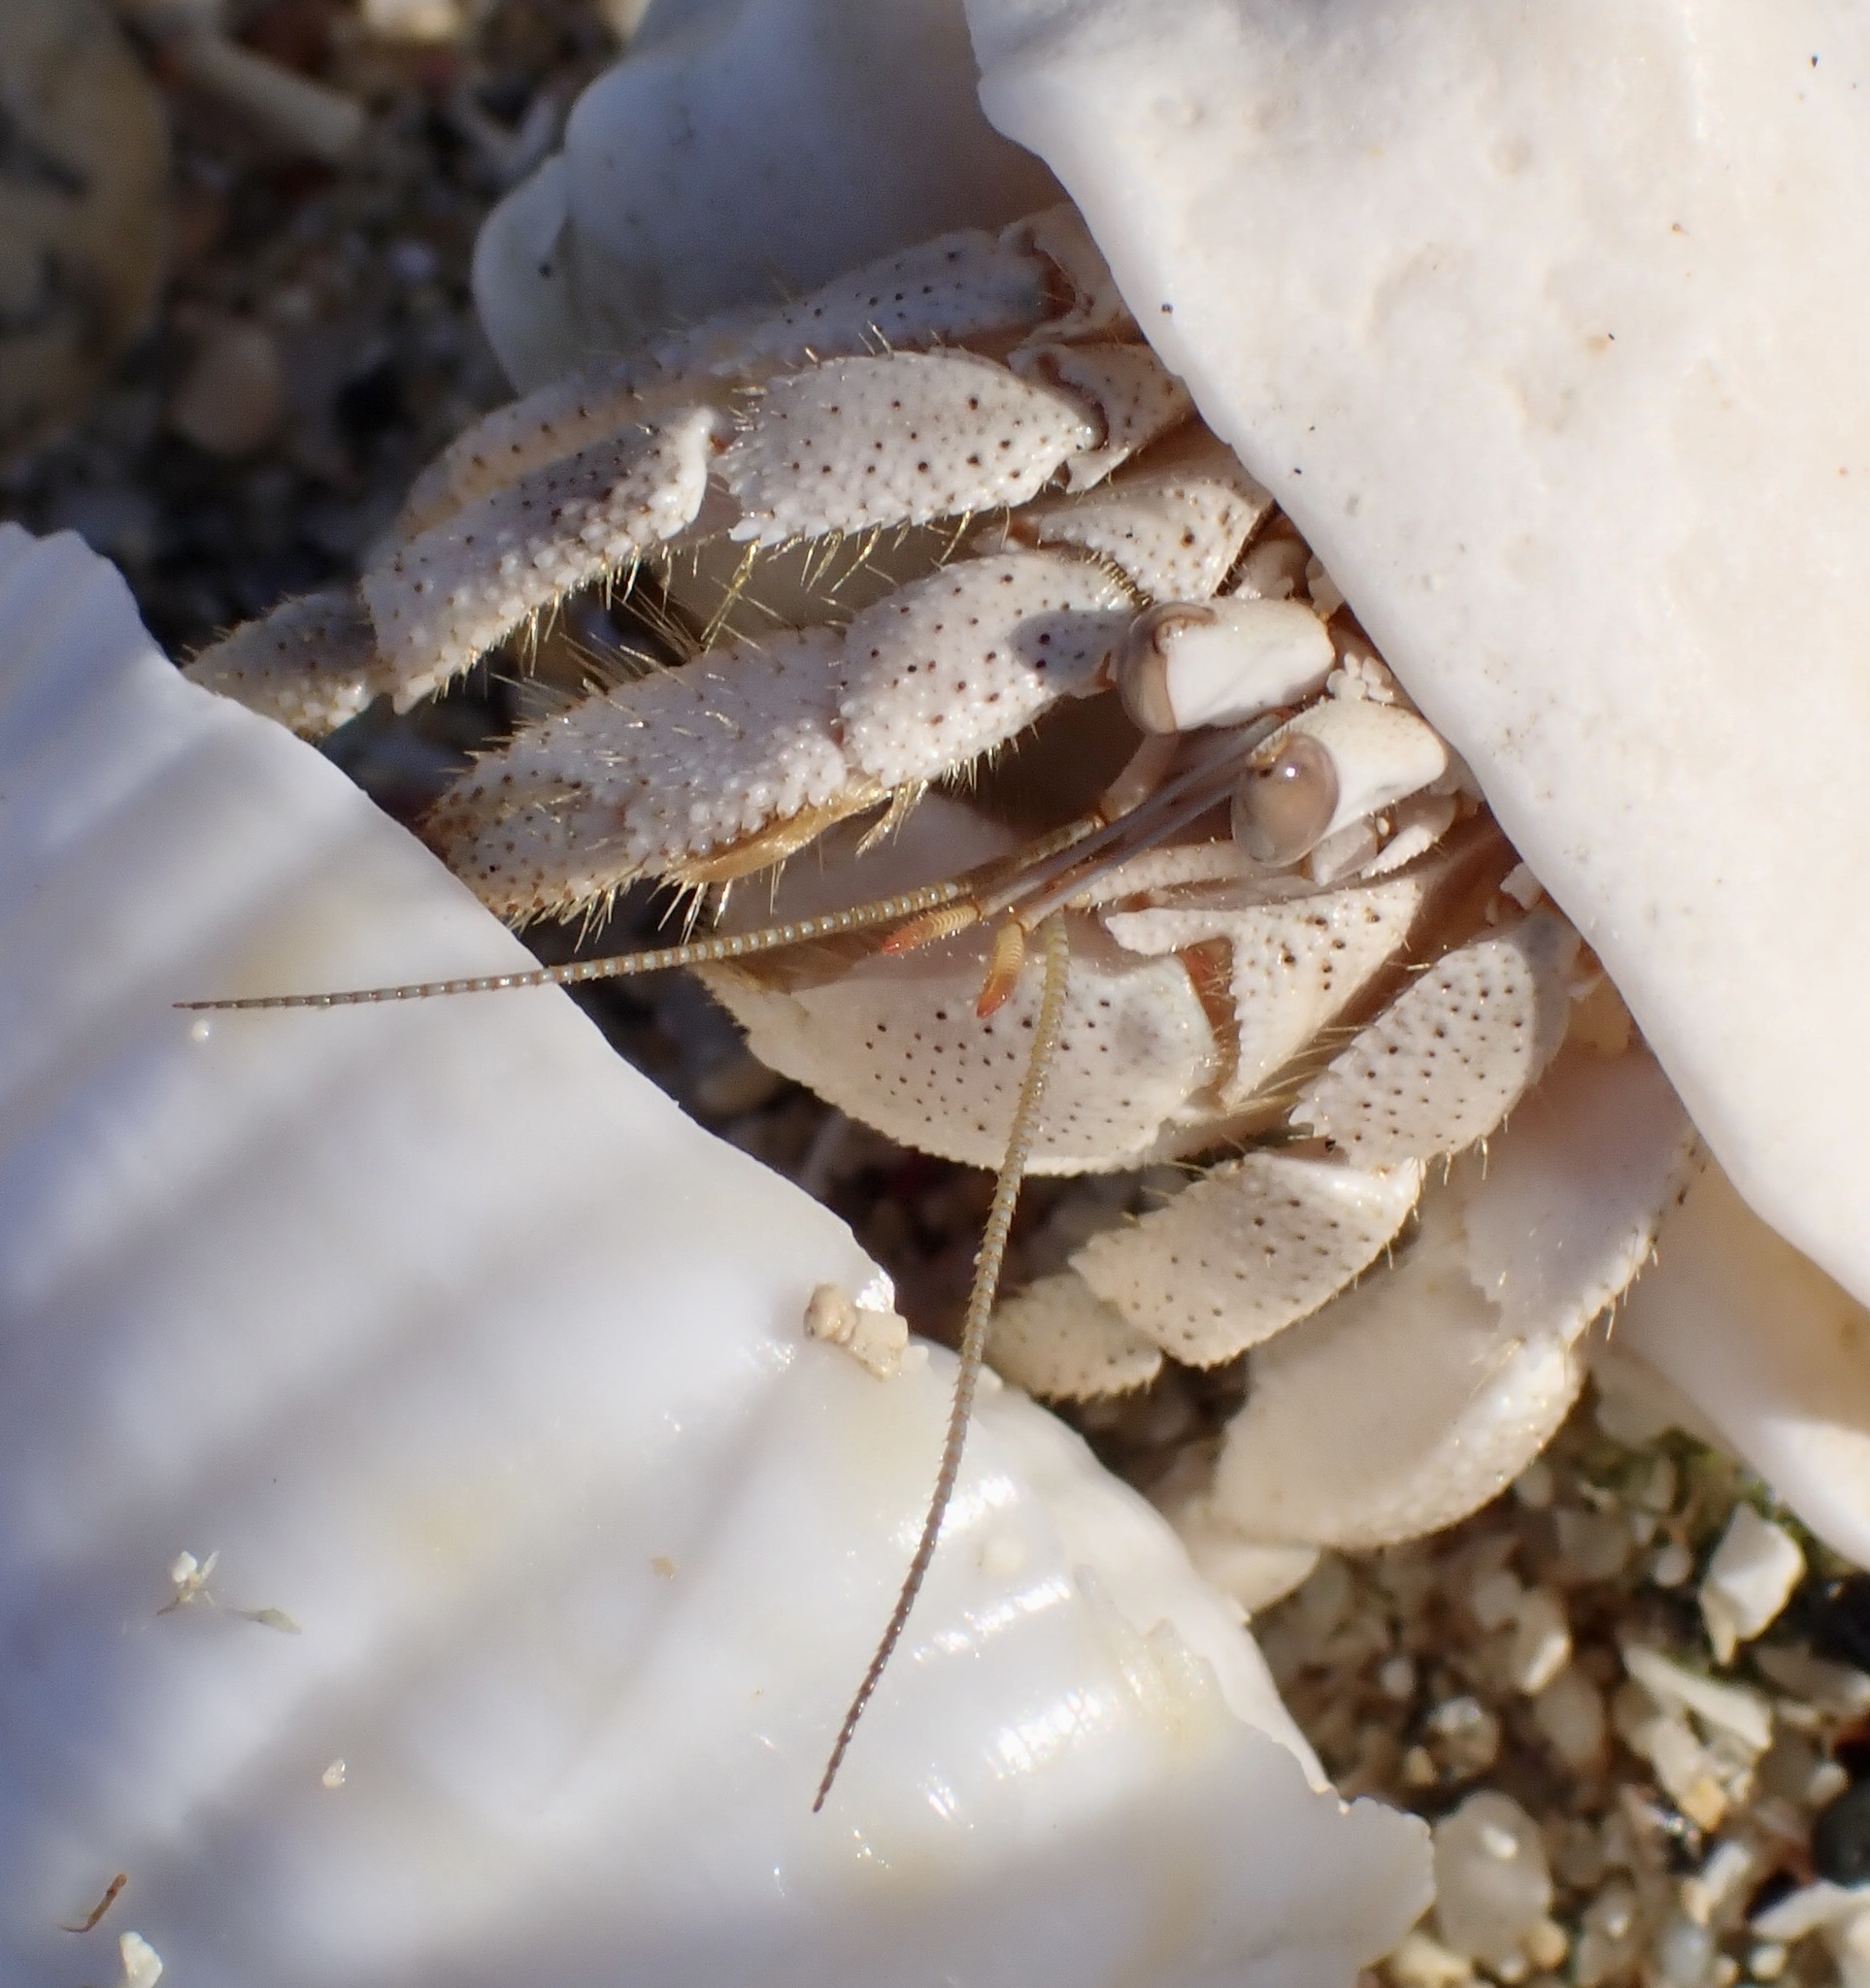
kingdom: Animalia
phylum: Arthropoda
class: Malacostraca
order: Decapoda
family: Coenobitidae
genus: Coenobita
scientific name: Coenobita scaevola
